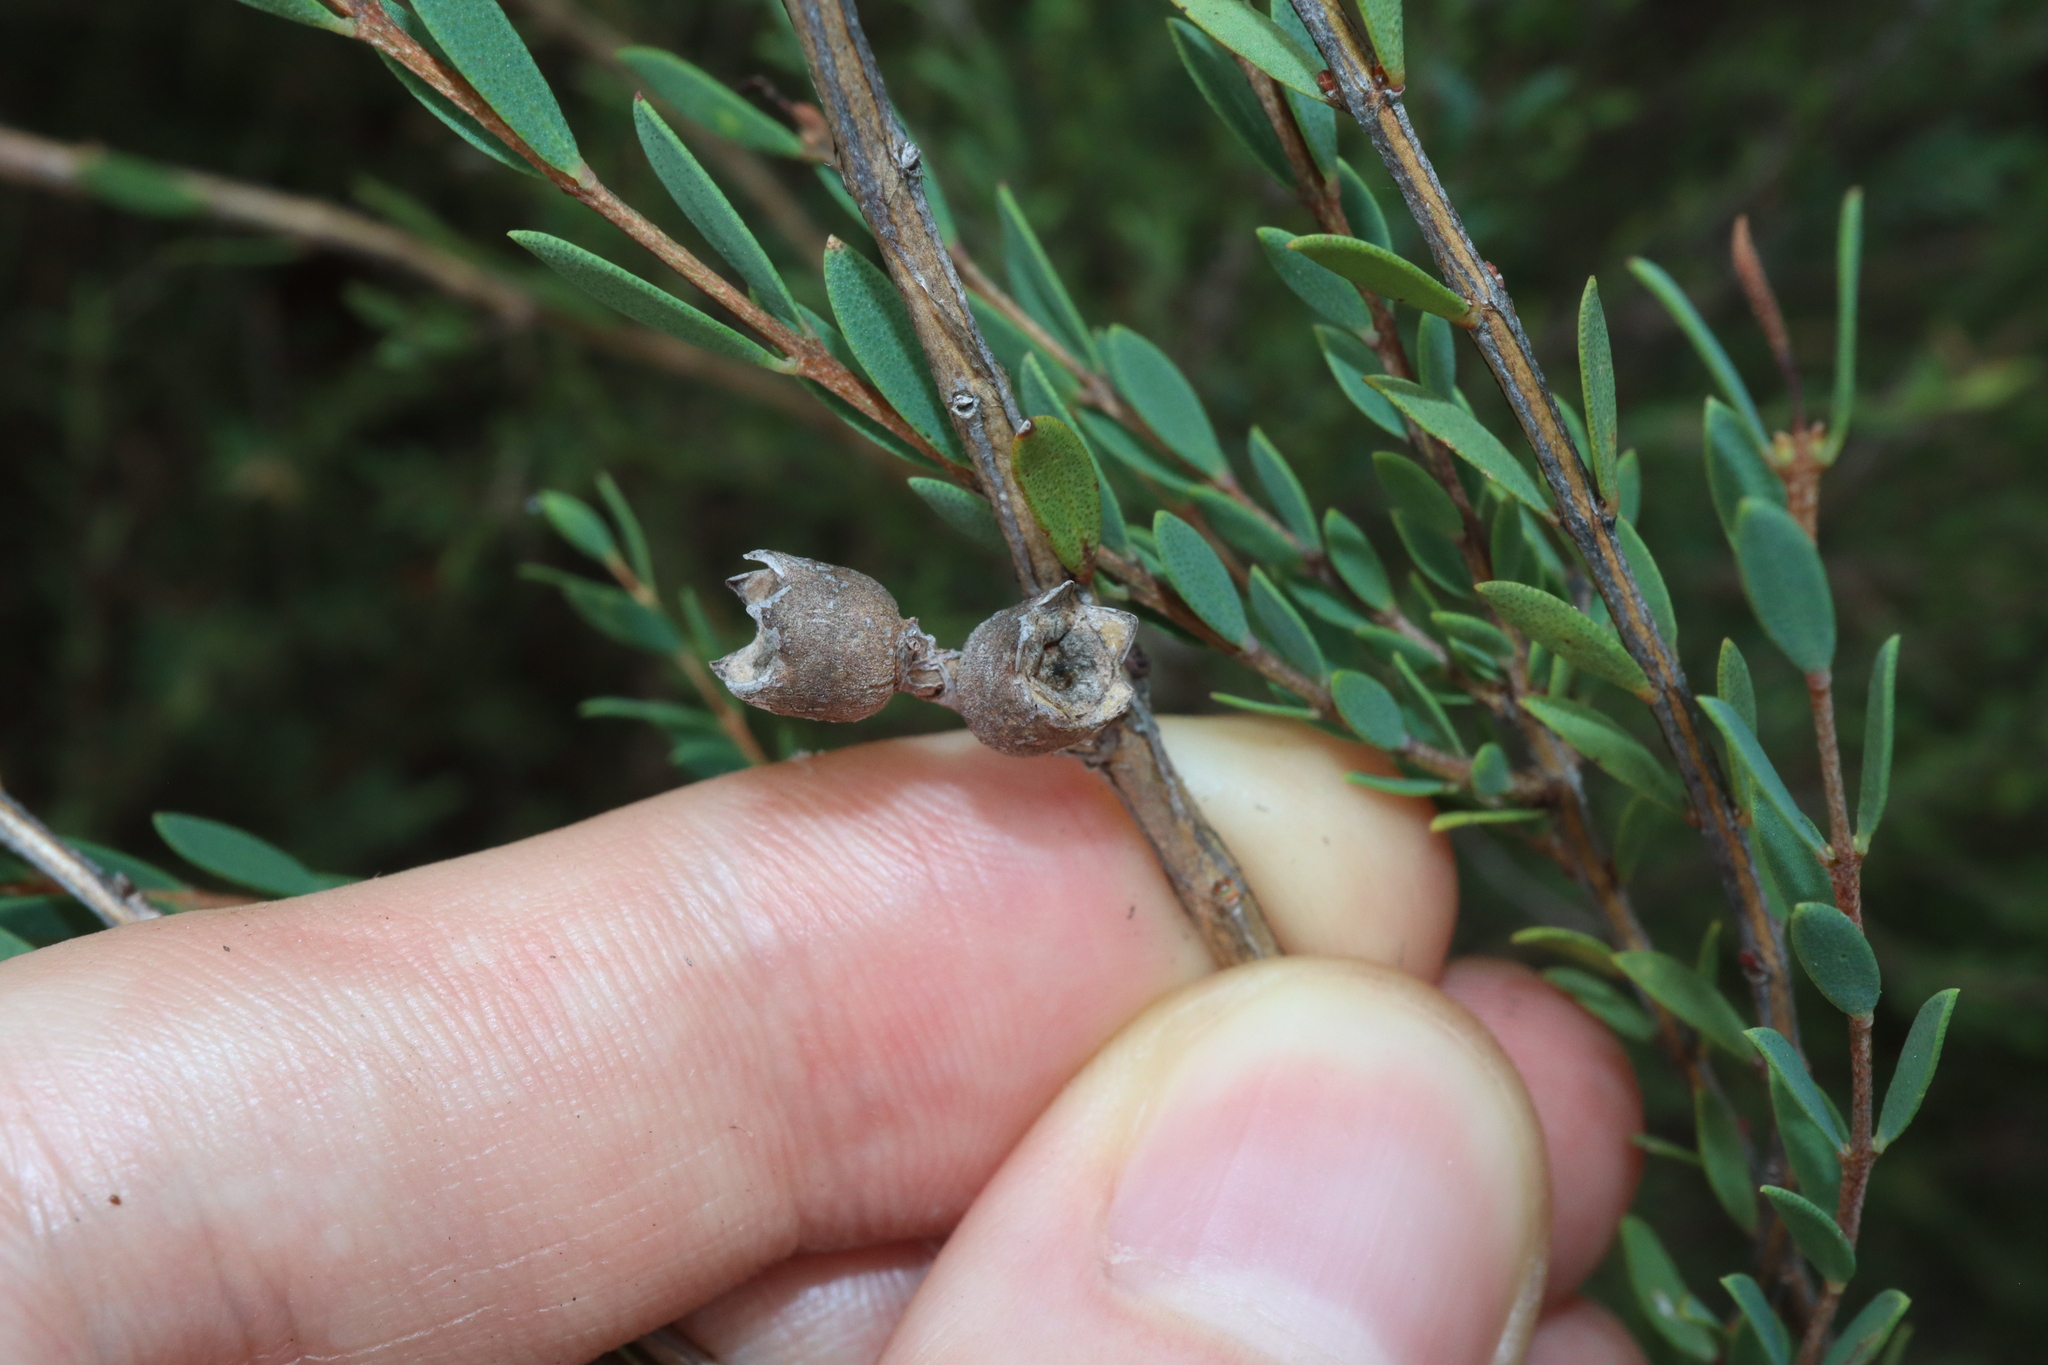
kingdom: Plantae
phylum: Tracheophyta
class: Magnoliopsida
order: Myrtales
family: Myrtaceae
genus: Melaleuca
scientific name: Melaleuca thymifolia
